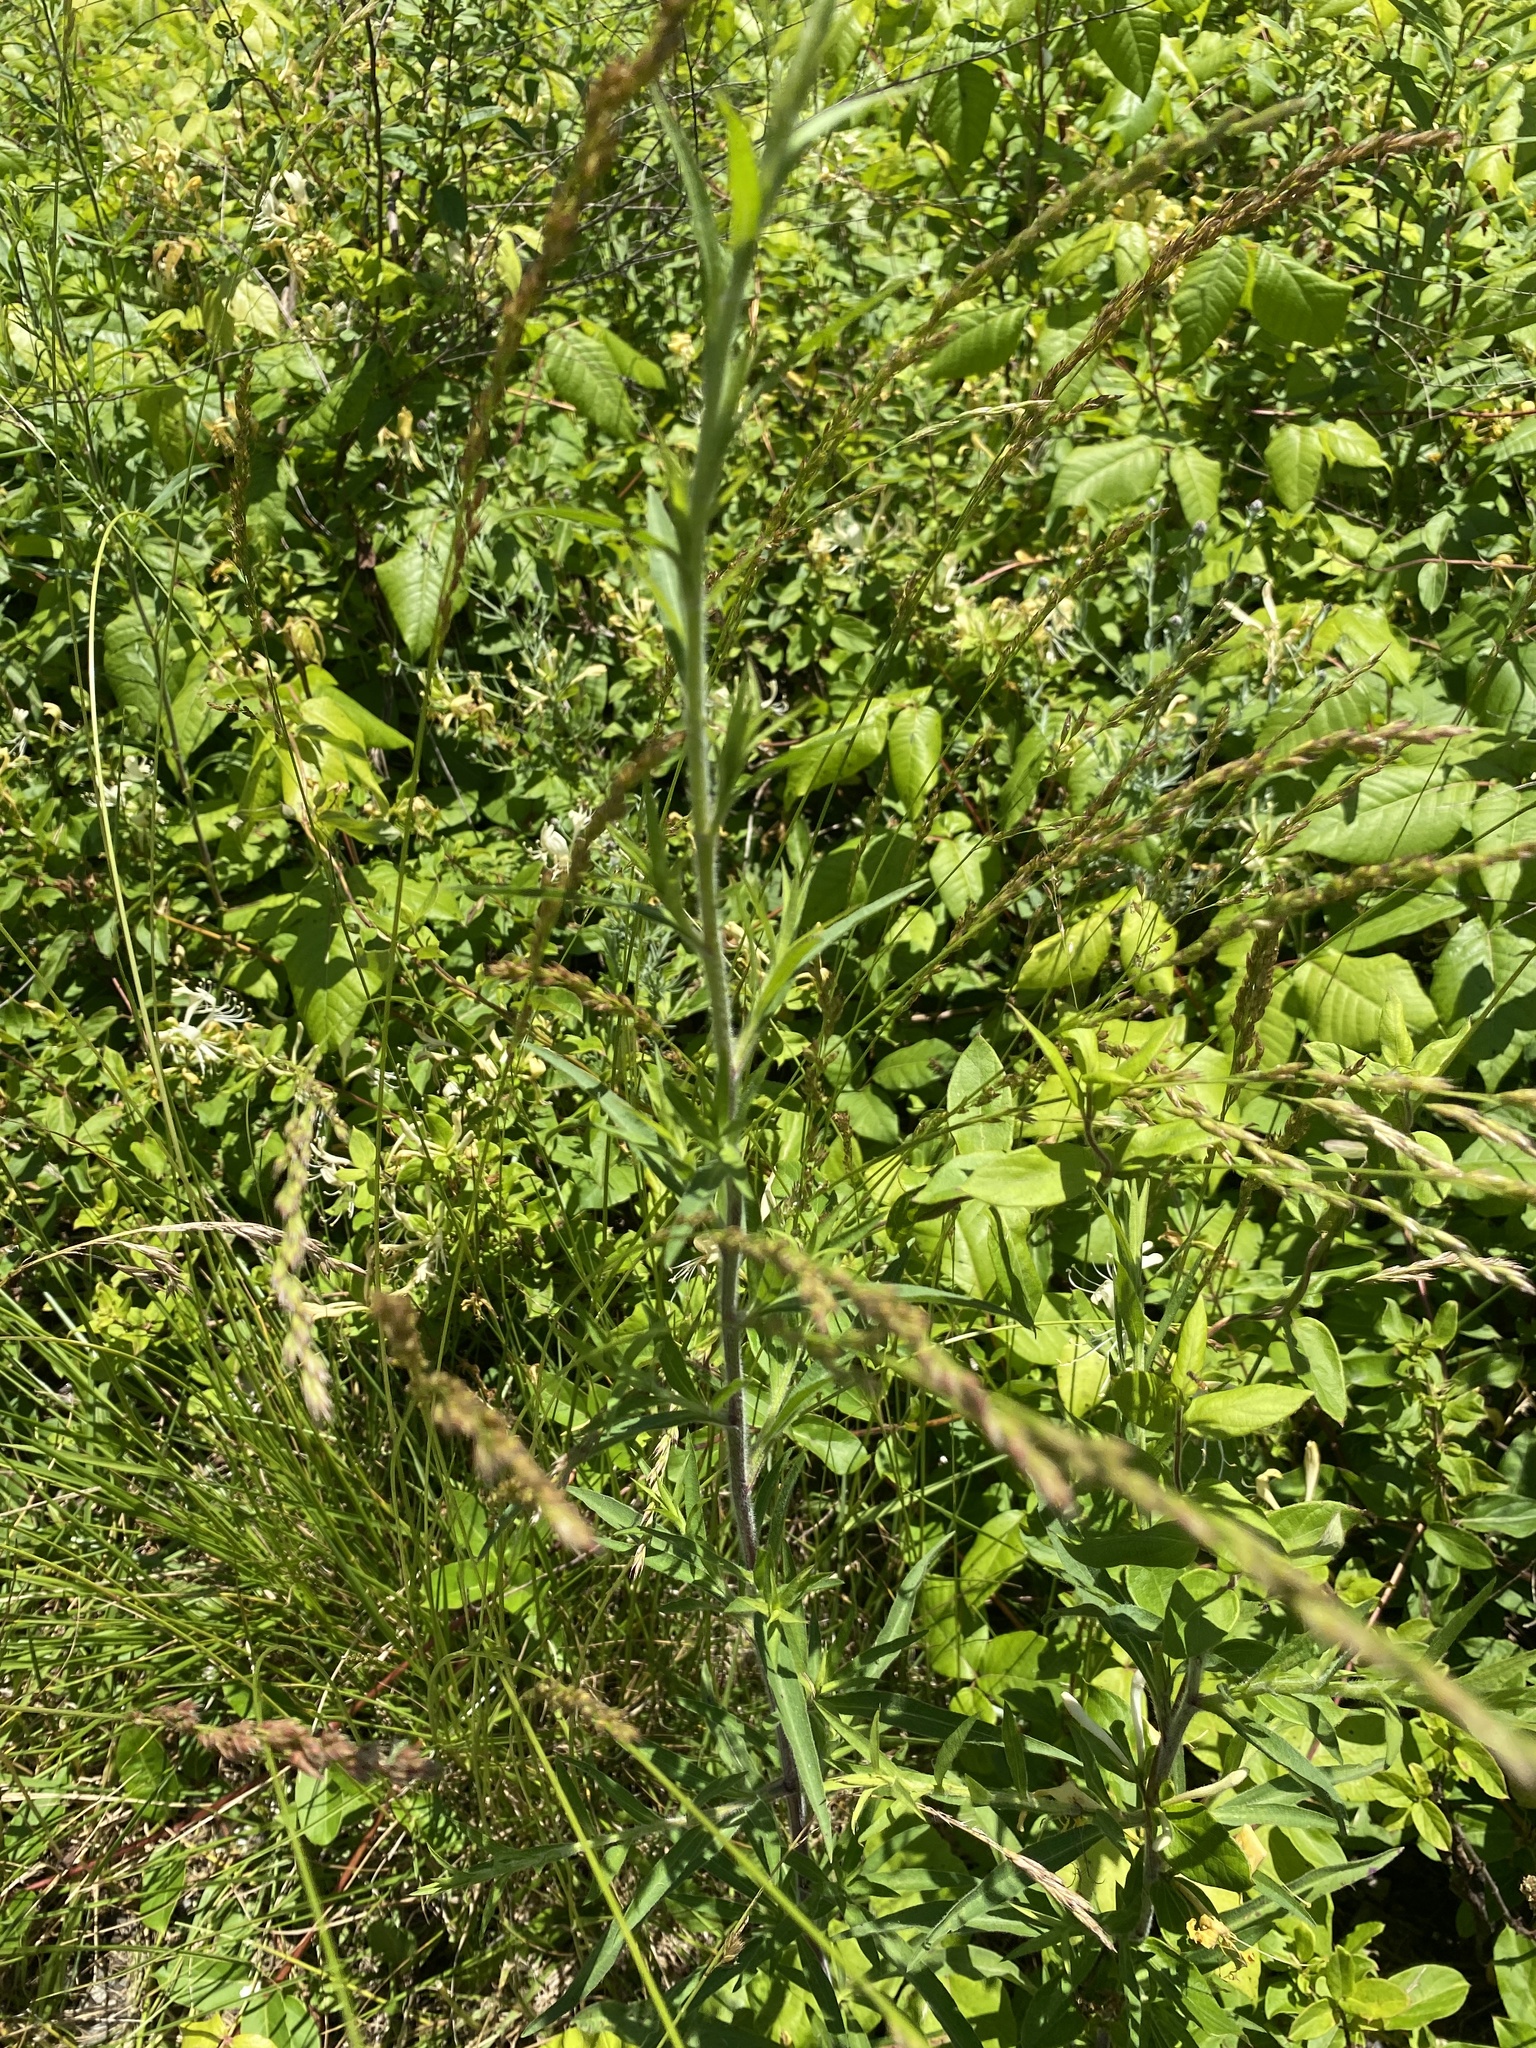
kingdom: Plantae
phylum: Tracheophyta
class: Magnoliopsida
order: Asterales
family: Asteraceae
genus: Symphyotrichum
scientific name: Symphyotrichum pilosum
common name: Awl aster
